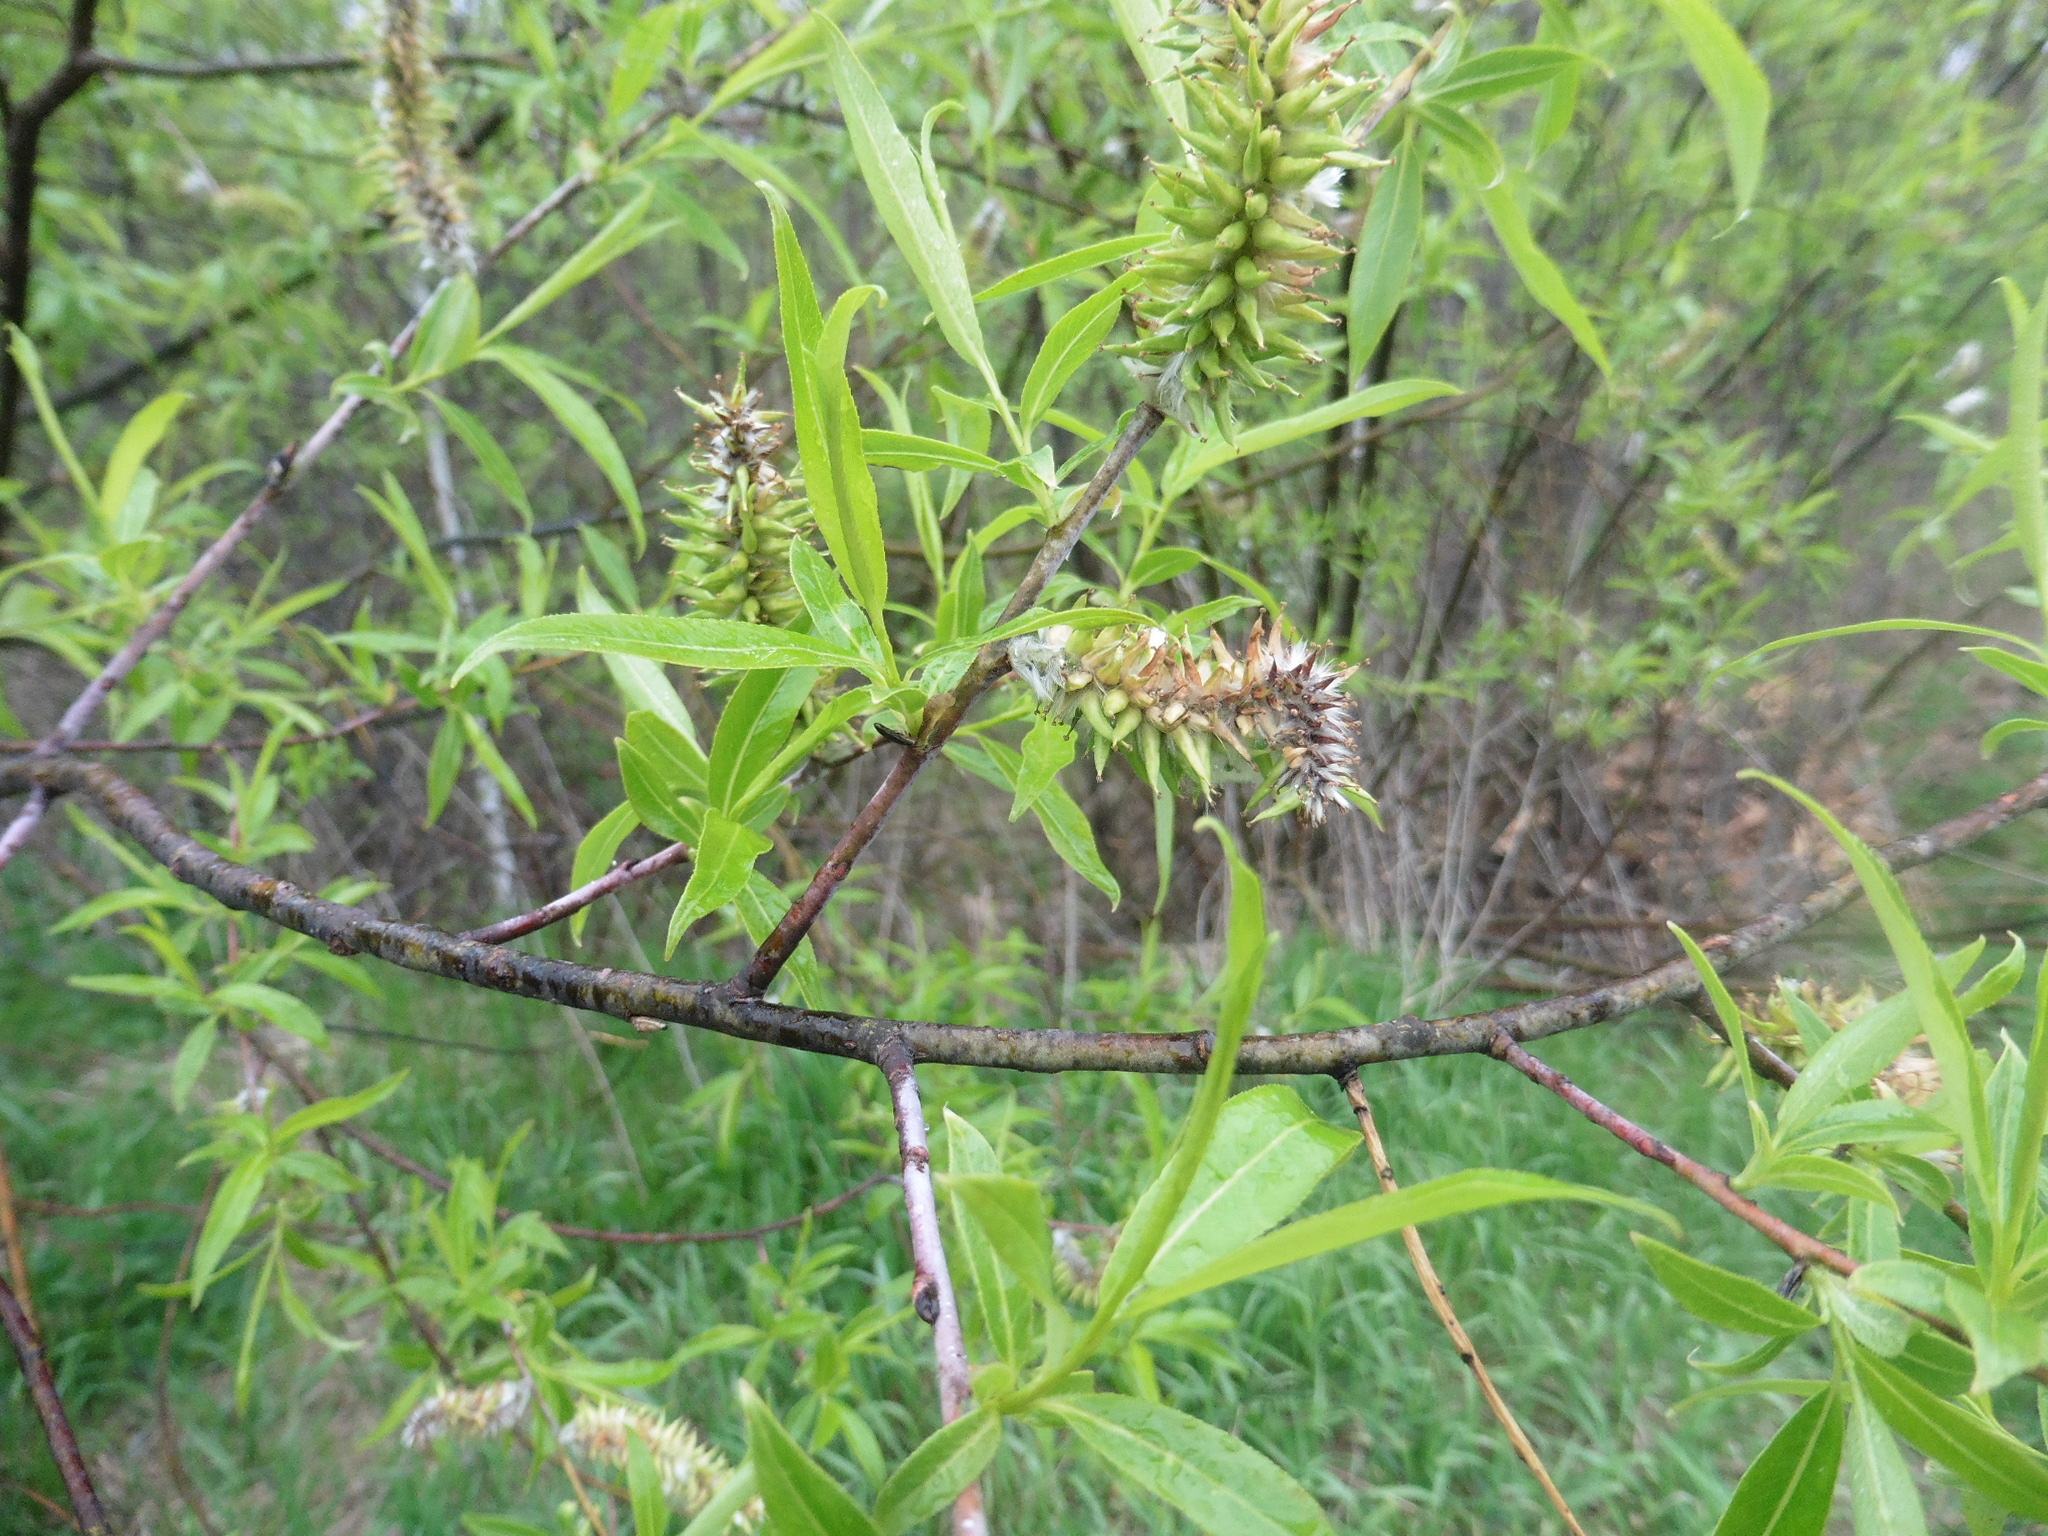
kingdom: Plantae
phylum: Tracheophyta
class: Magnoliopsida
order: Malpighiales
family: Salicaceae
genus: Salix
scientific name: Salix acutifolia
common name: Siberian violet-willow
